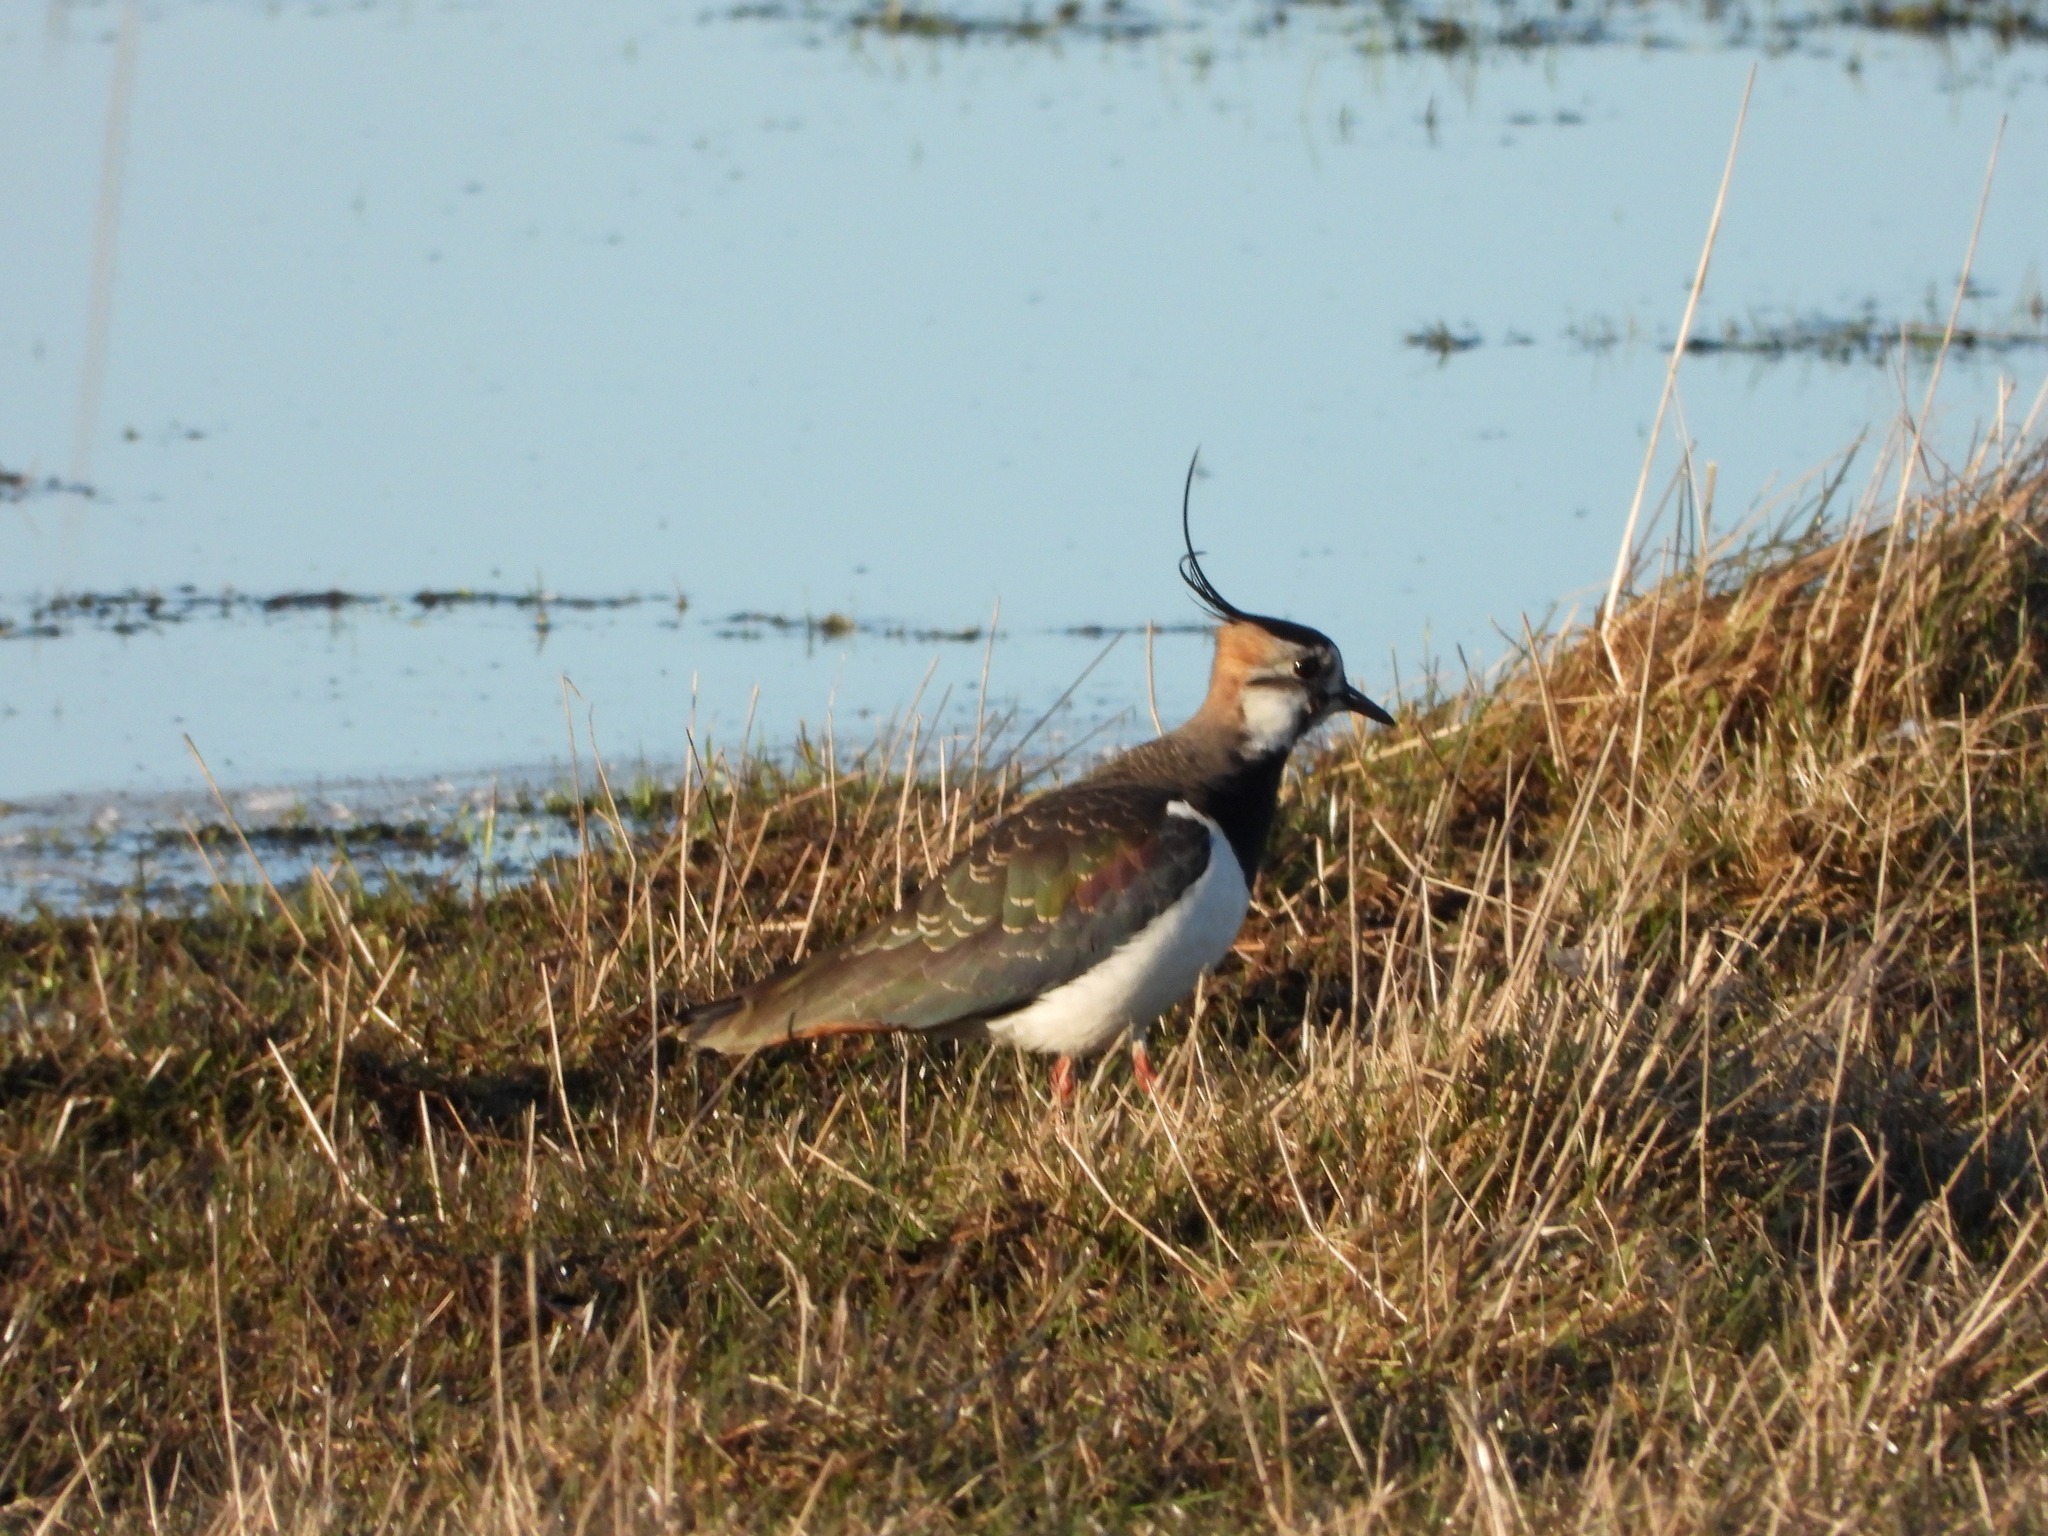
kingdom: Animalia
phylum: Chordata
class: Aves
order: Charadriiformes
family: Charadriidae
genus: Vanellus
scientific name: Vanellus vanellus
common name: Northern lapwing
